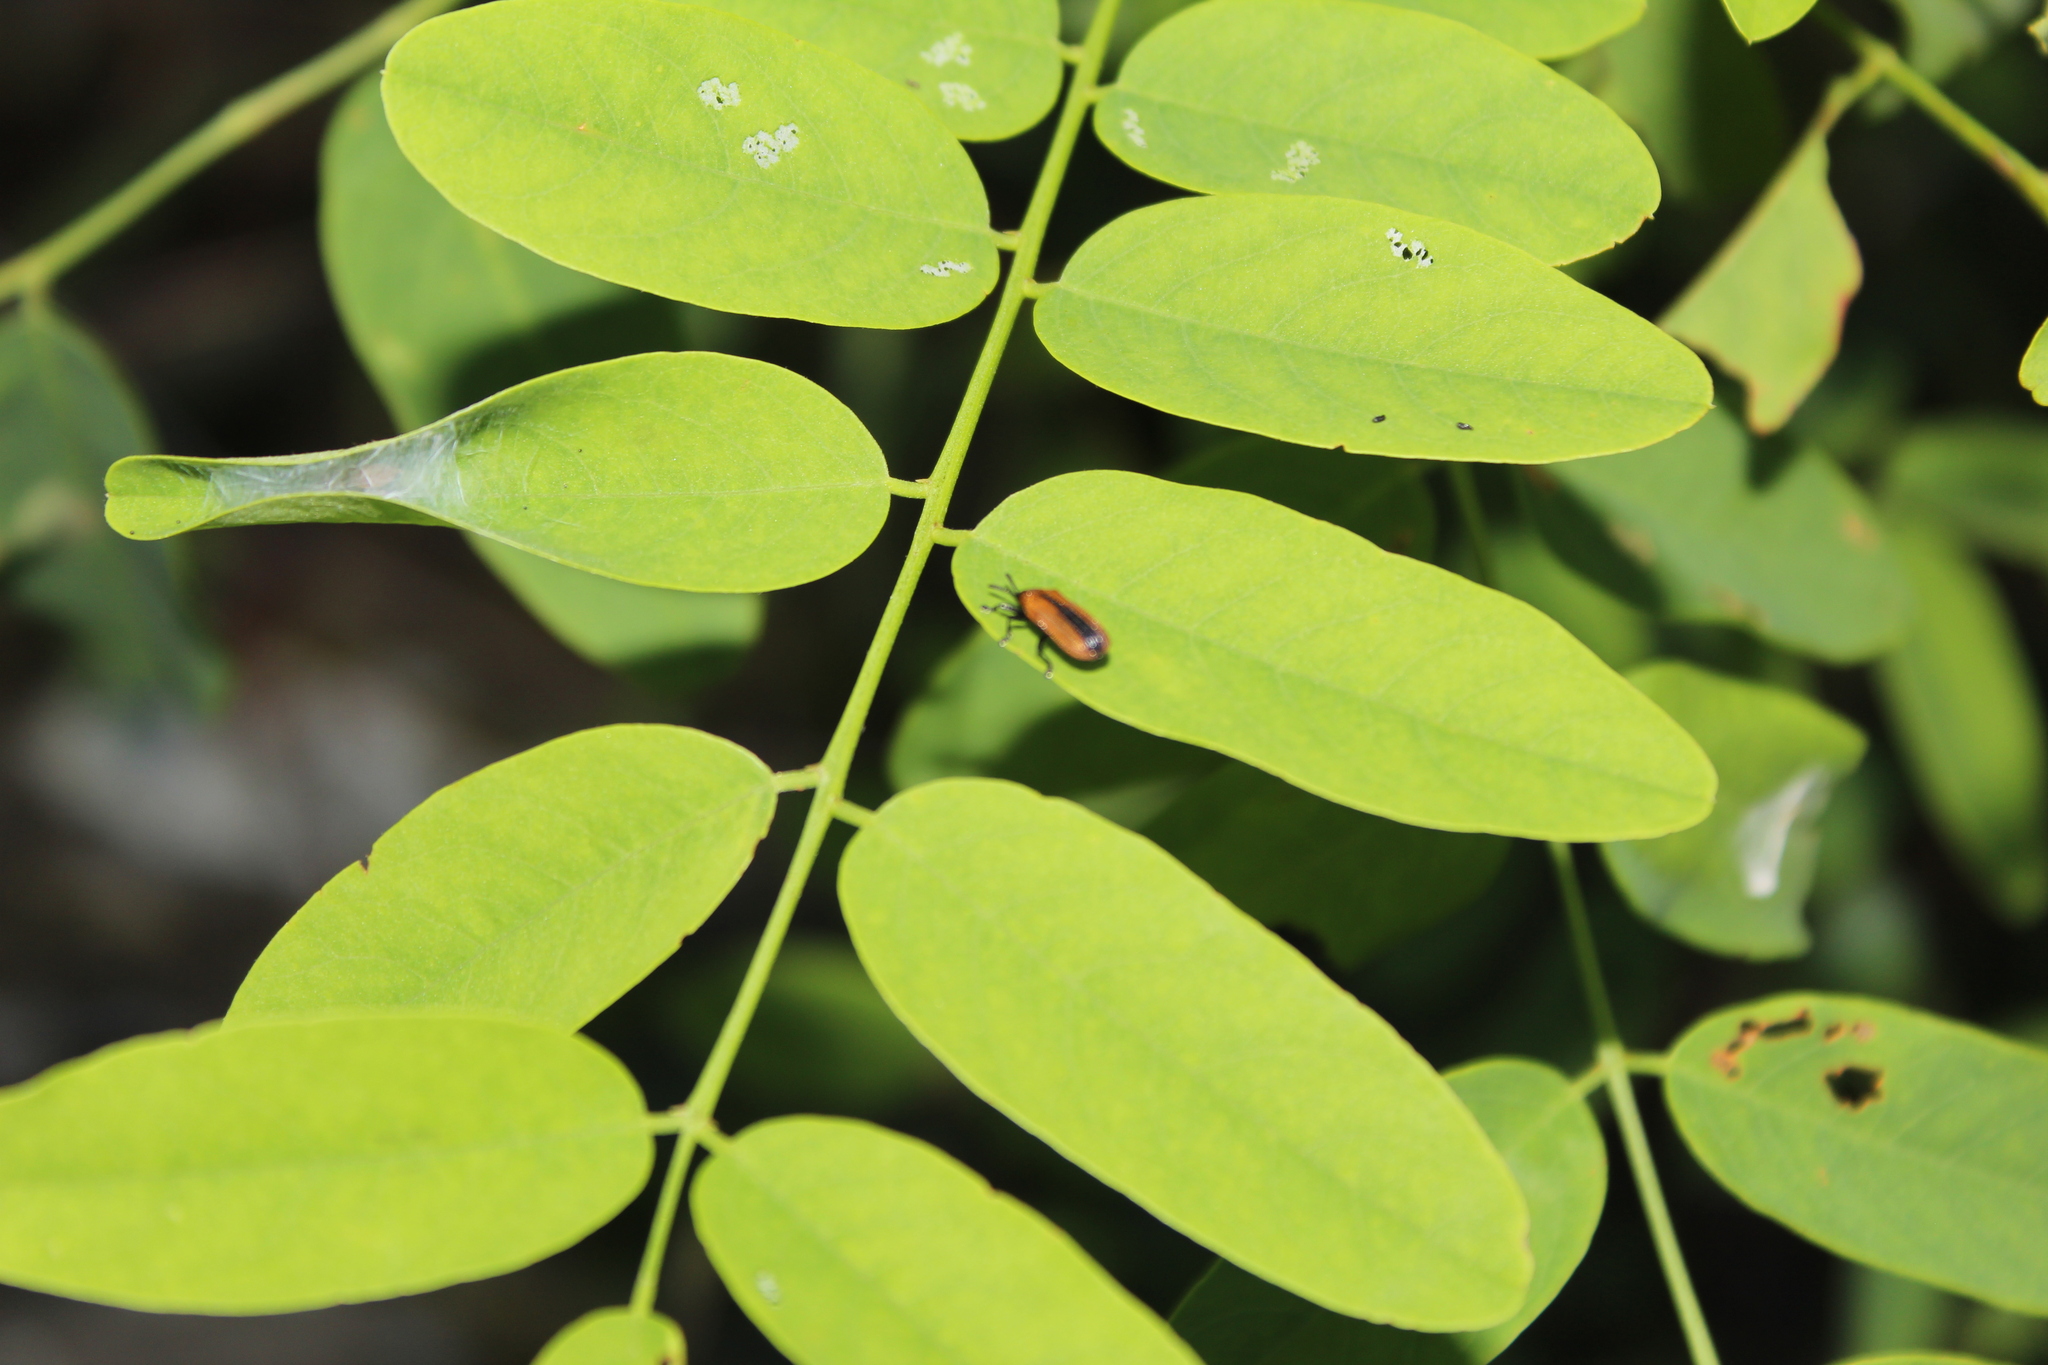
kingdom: Plantae
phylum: Tracheophyta
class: Magnoliopsida
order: Fabales
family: Fabaceae
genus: Robinia
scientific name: Robinia pseudoacacia
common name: Black locust
